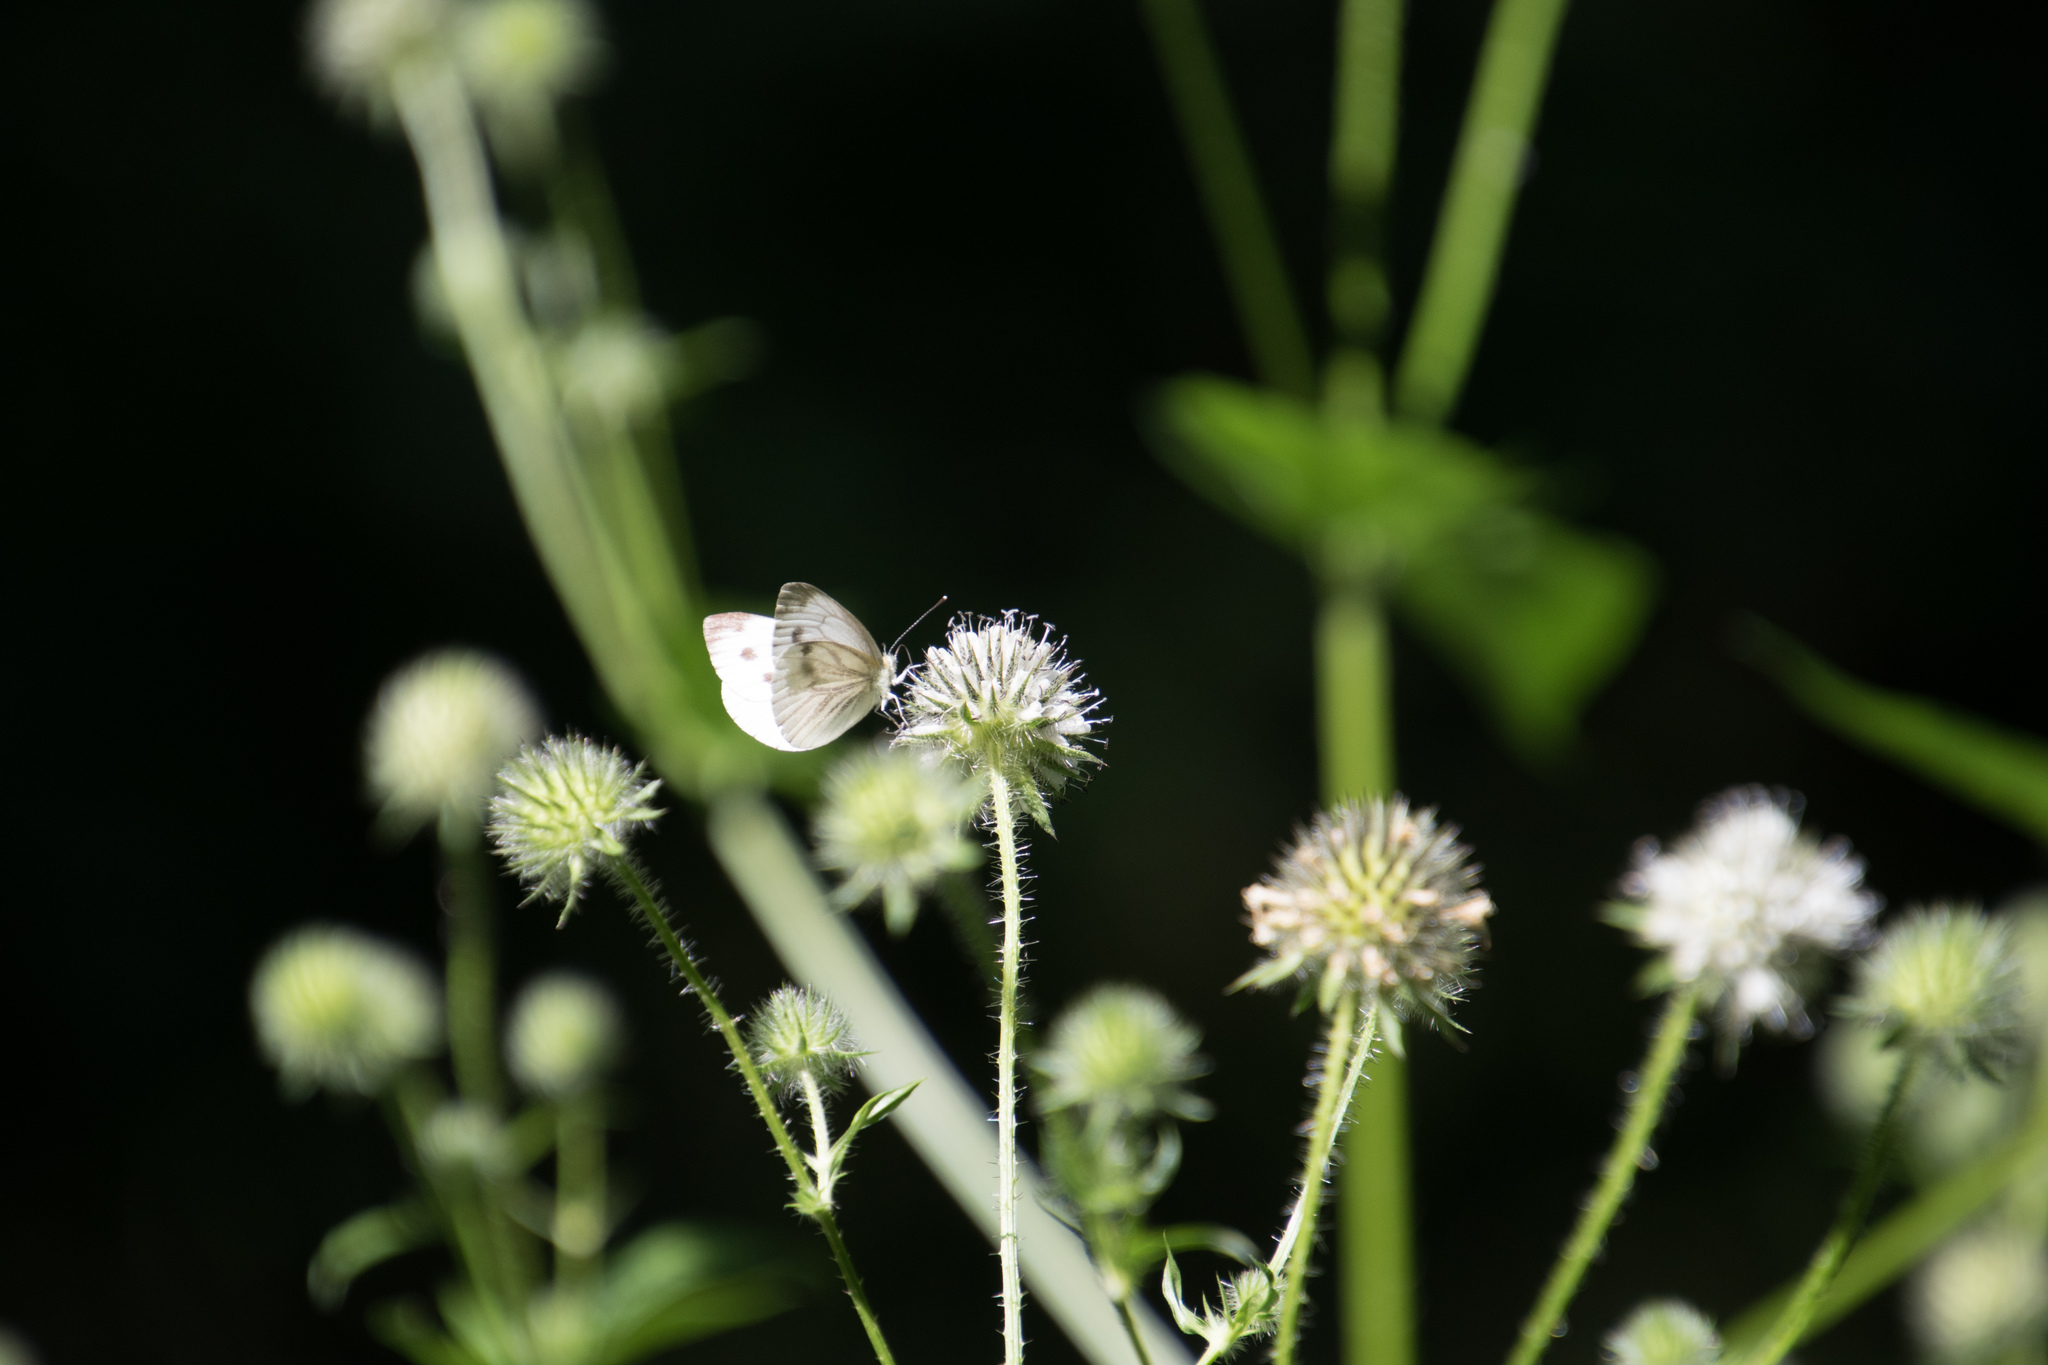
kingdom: Animalia
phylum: Arthropoda
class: Insecta
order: Lepidoptera
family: Pieridae
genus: Pieris
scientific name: Pieris napi
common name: Green-veined white
